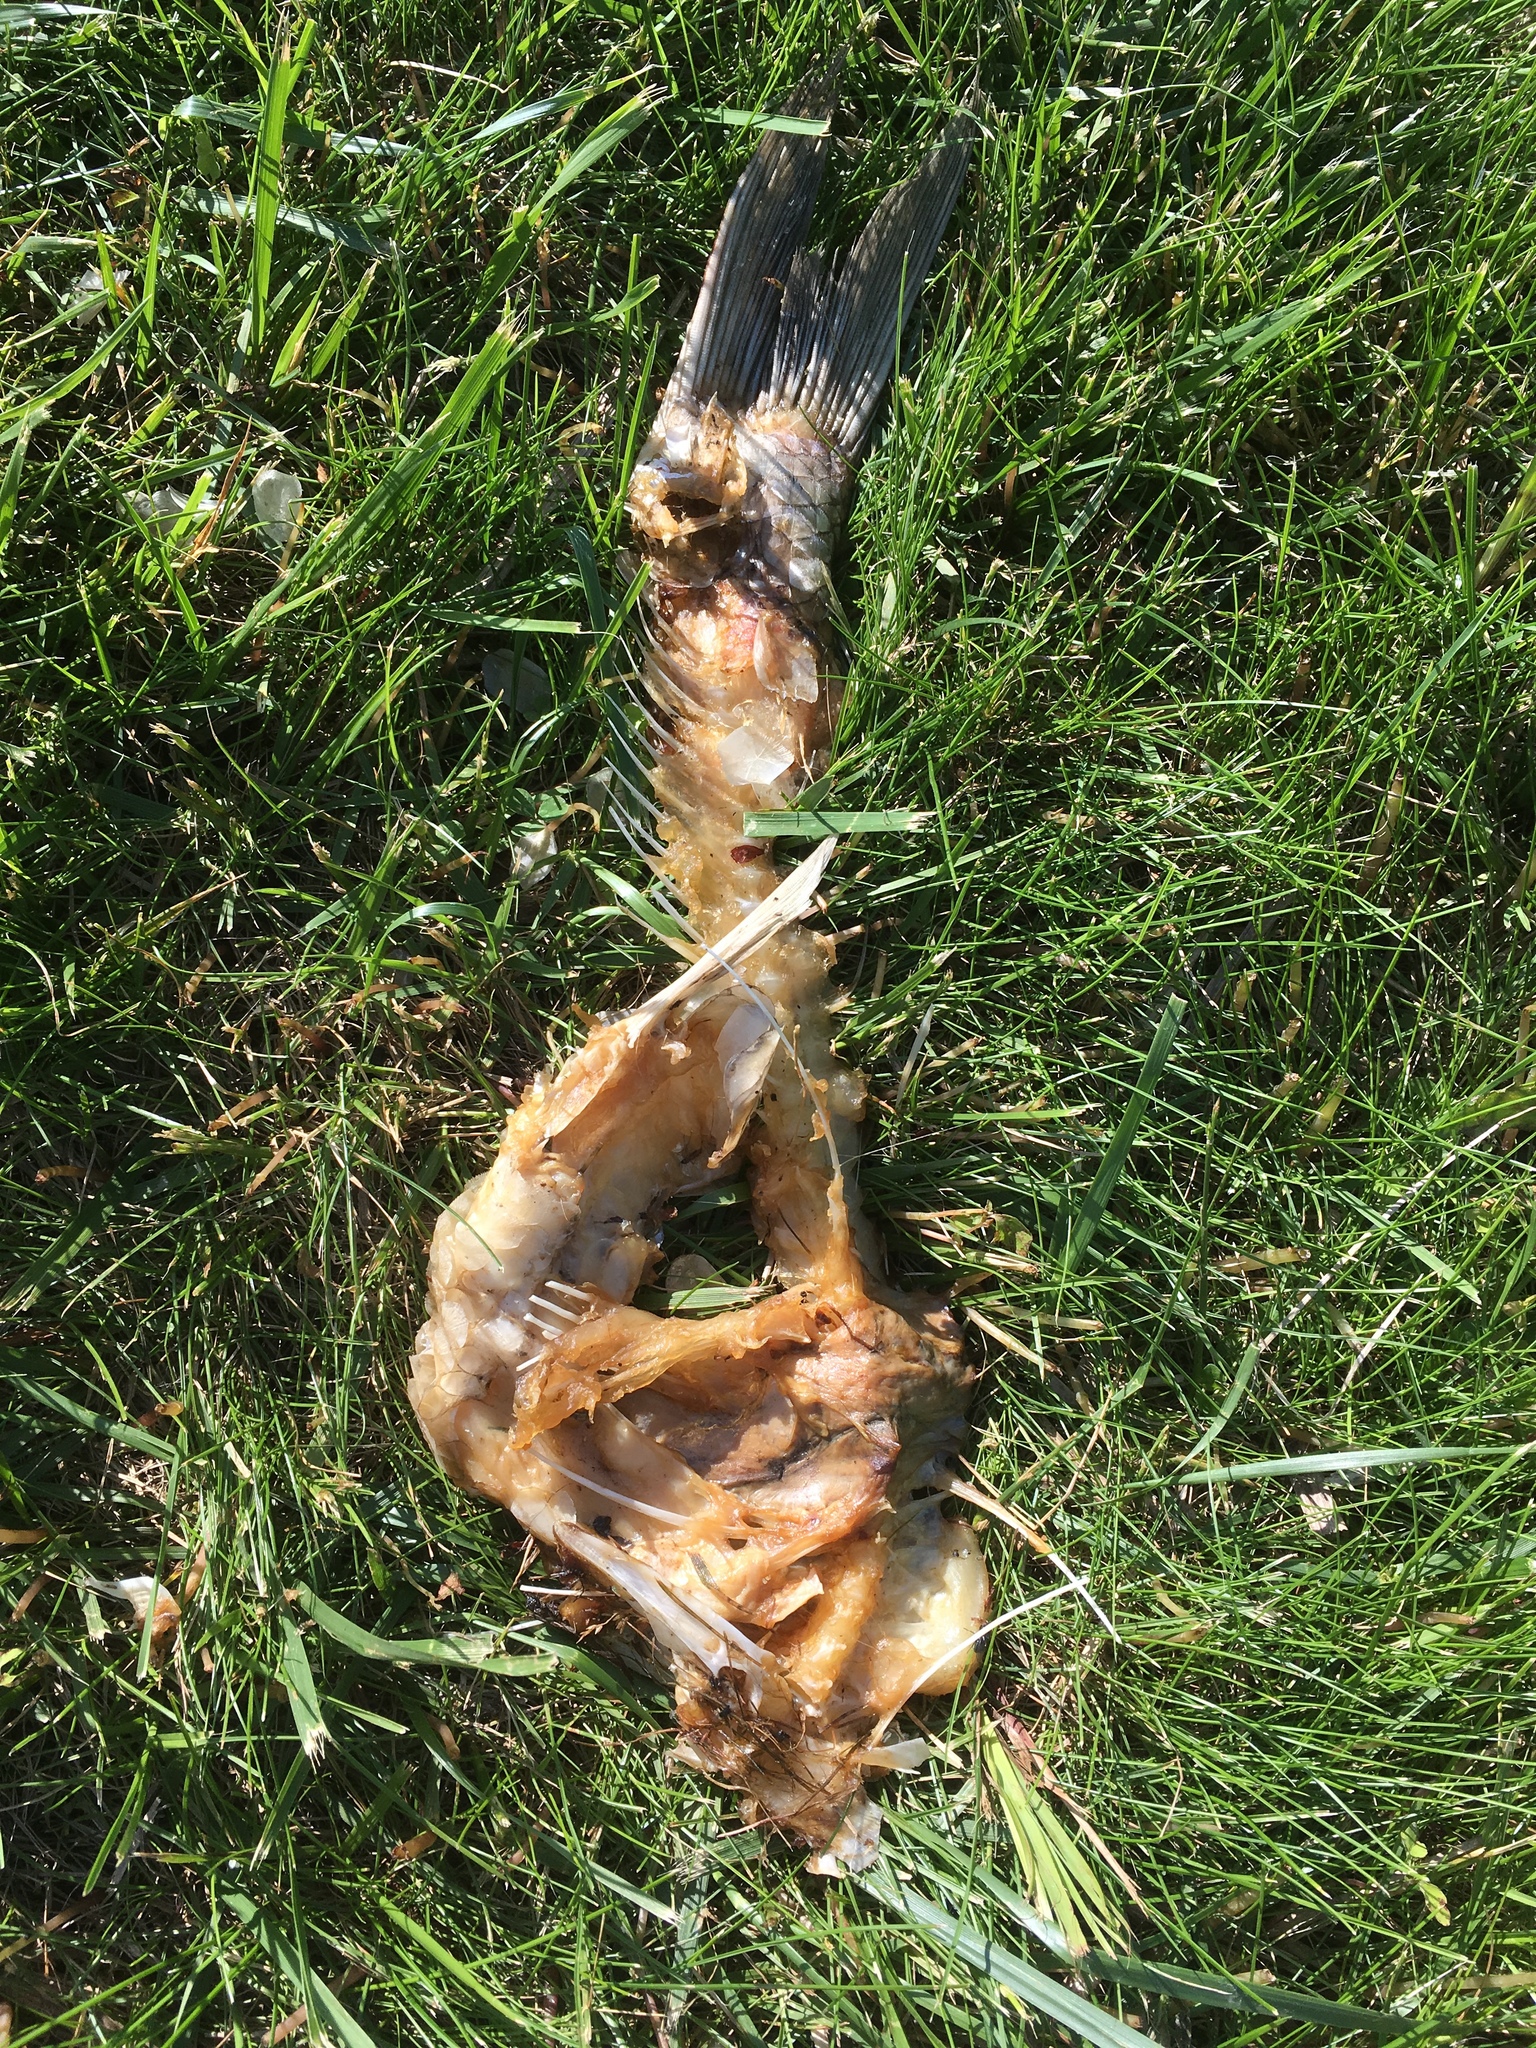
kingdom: Animalia
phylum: Chordata
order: Cypriniformes
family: Cyprinidae
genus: Cyprinus
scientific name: Cyprinus carpio
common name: Common carp
